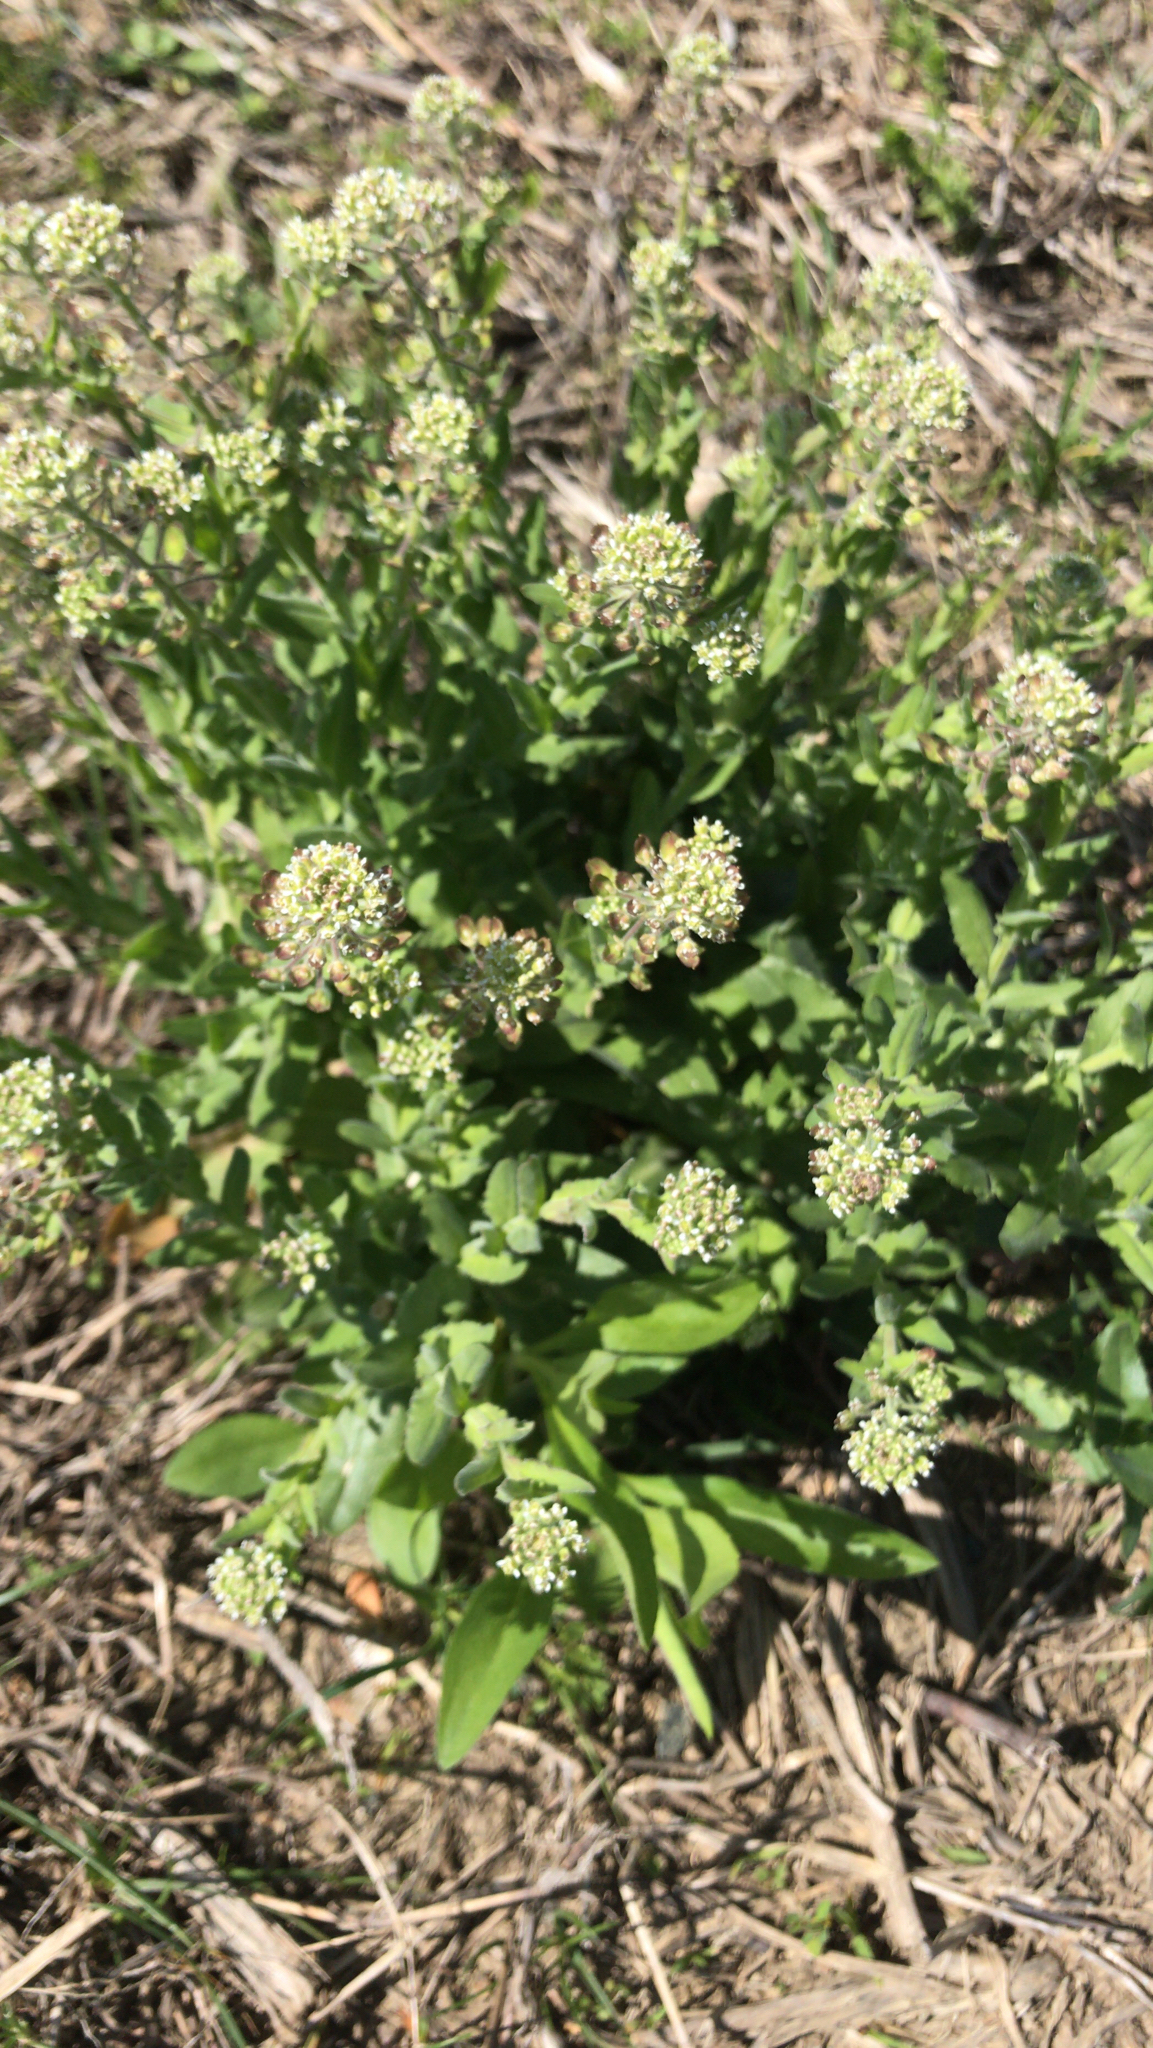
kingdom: Plantae
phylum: Tracheophyta
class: Magnoliopsida
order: Brassicales
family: Brassicaceae
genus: Lepidium
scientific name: Lepidium campestre
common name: Field pepperwort
